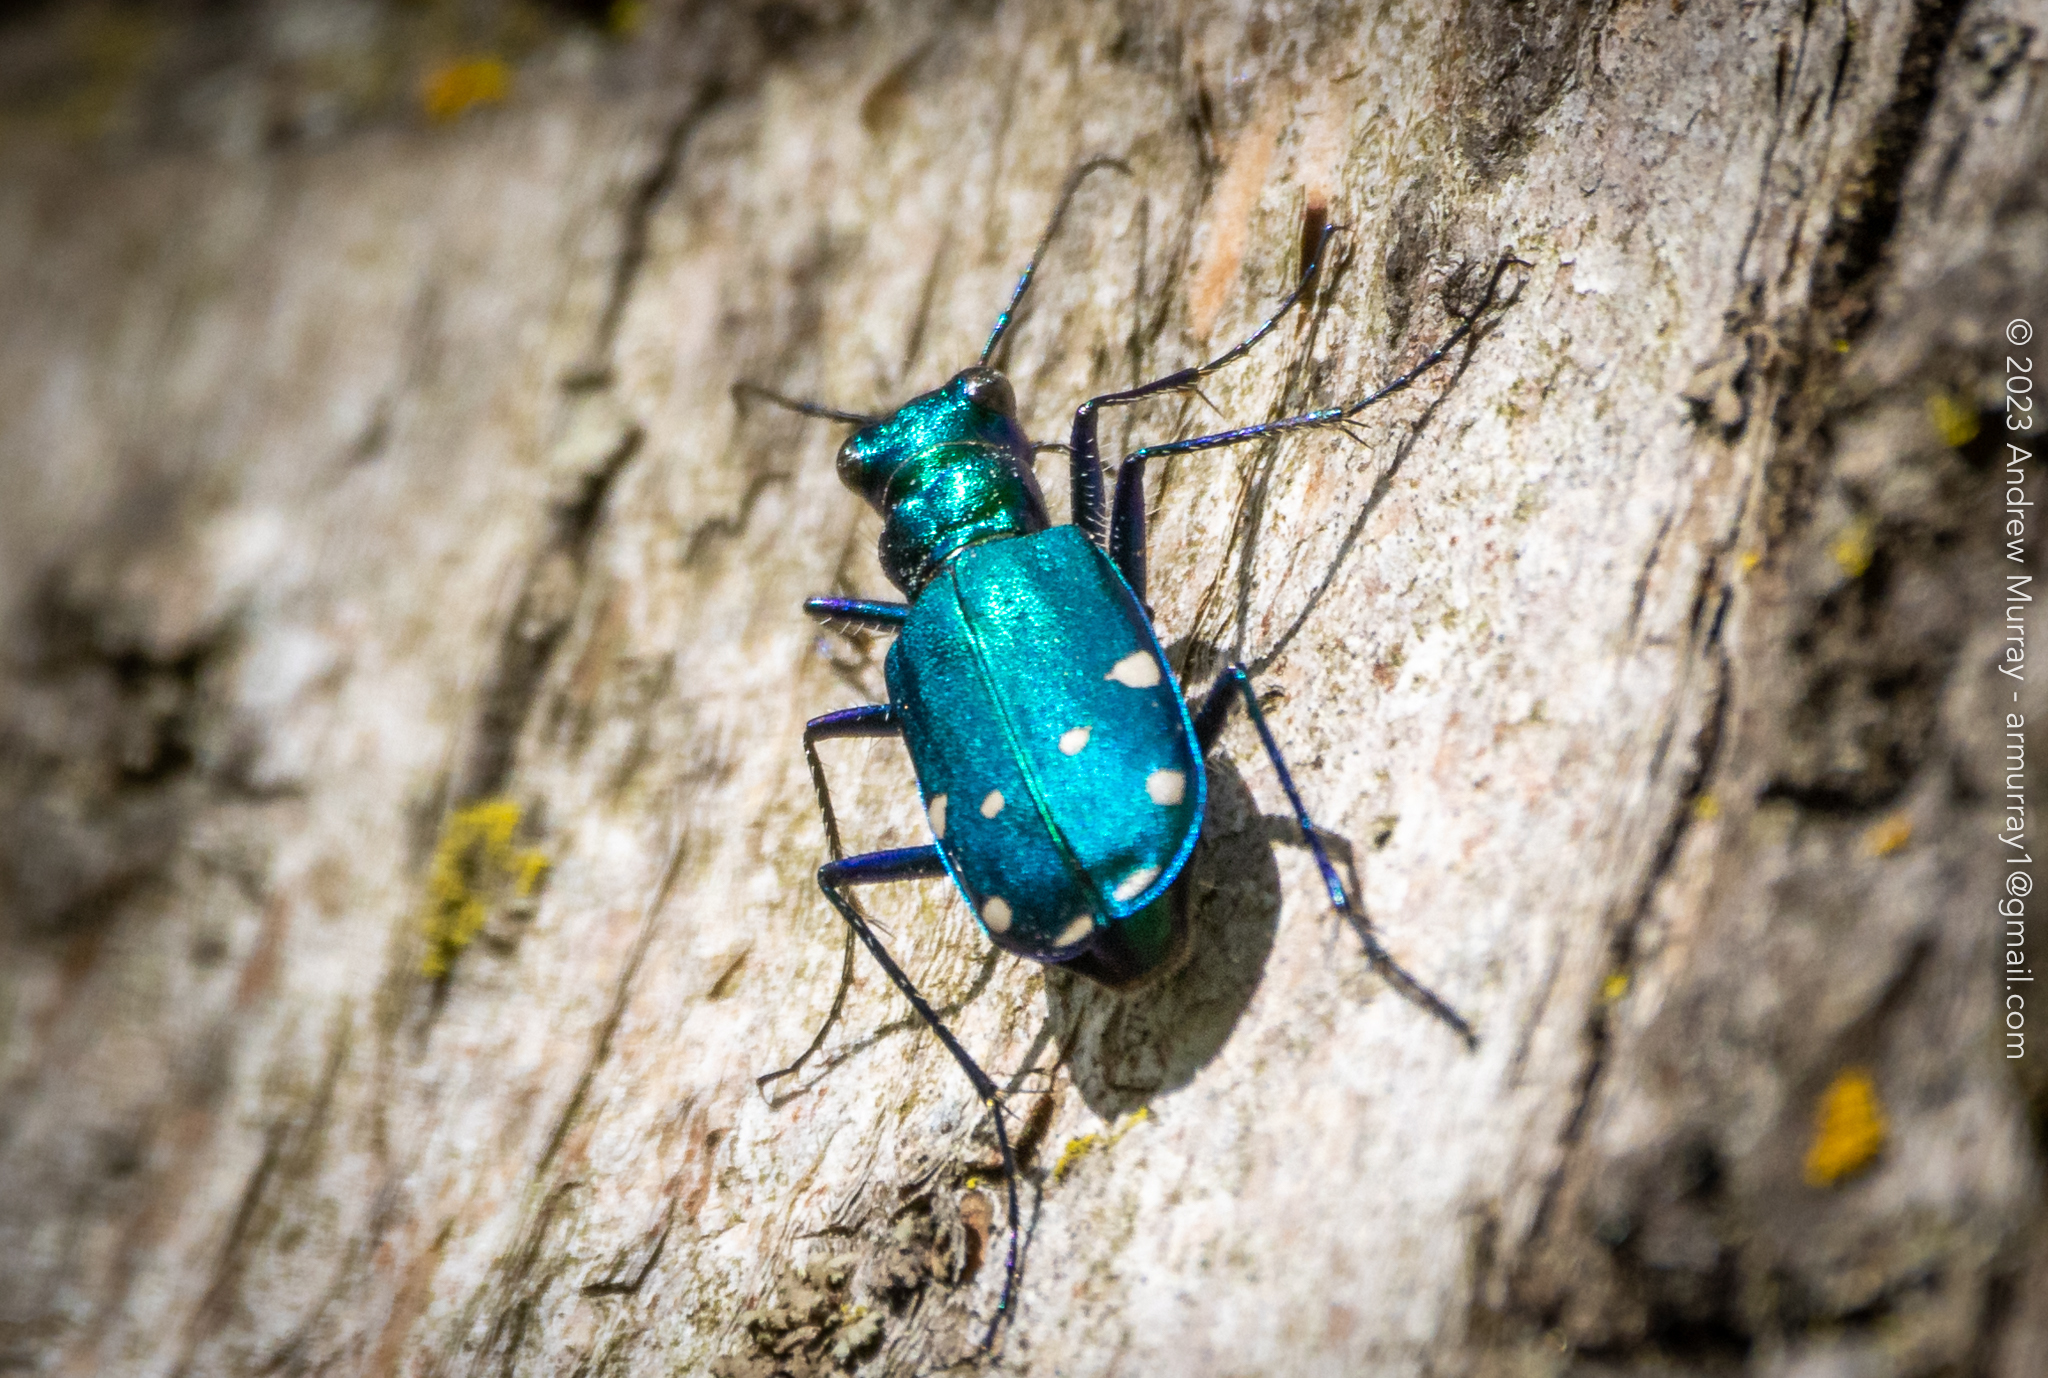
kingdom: Animalia
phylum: Arthropoda
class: Insecta
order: Coleoptera
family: Carabidae
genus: Cicindela
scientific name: Cicindela sexguttata
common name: Six-spotted tiger beetle
